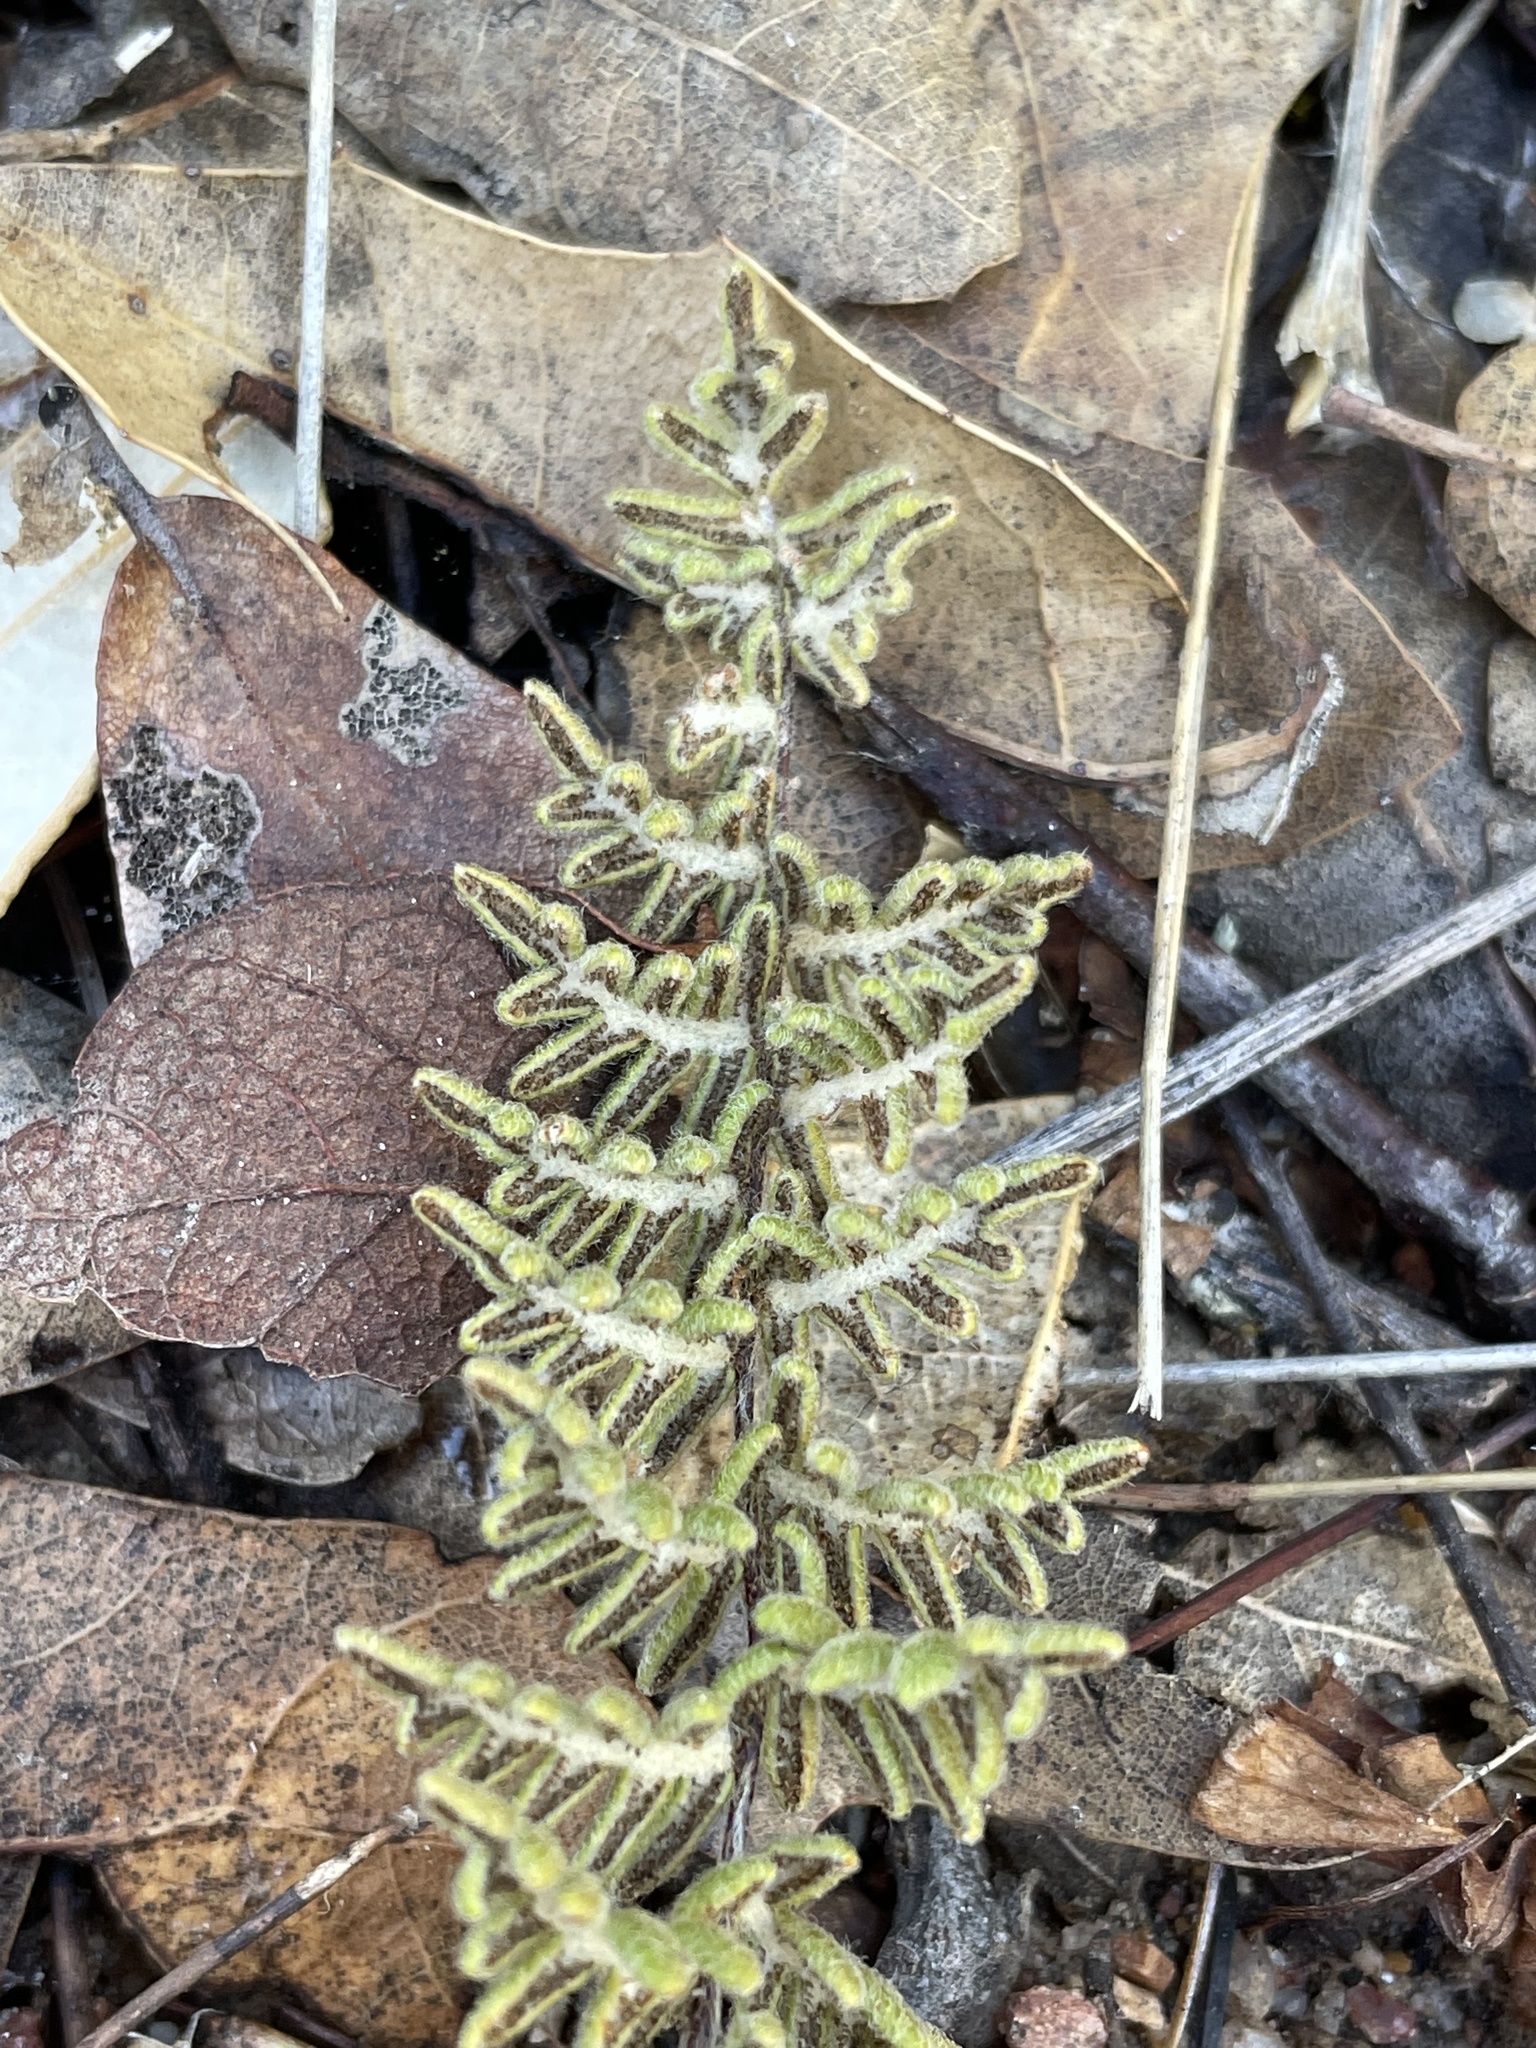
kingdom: Plantae
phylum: Tracheophyta
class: Polypodiopsida
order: Polypodiales
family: Pteridaceae
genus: Myriopteris
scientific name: Myriopteris aurea
